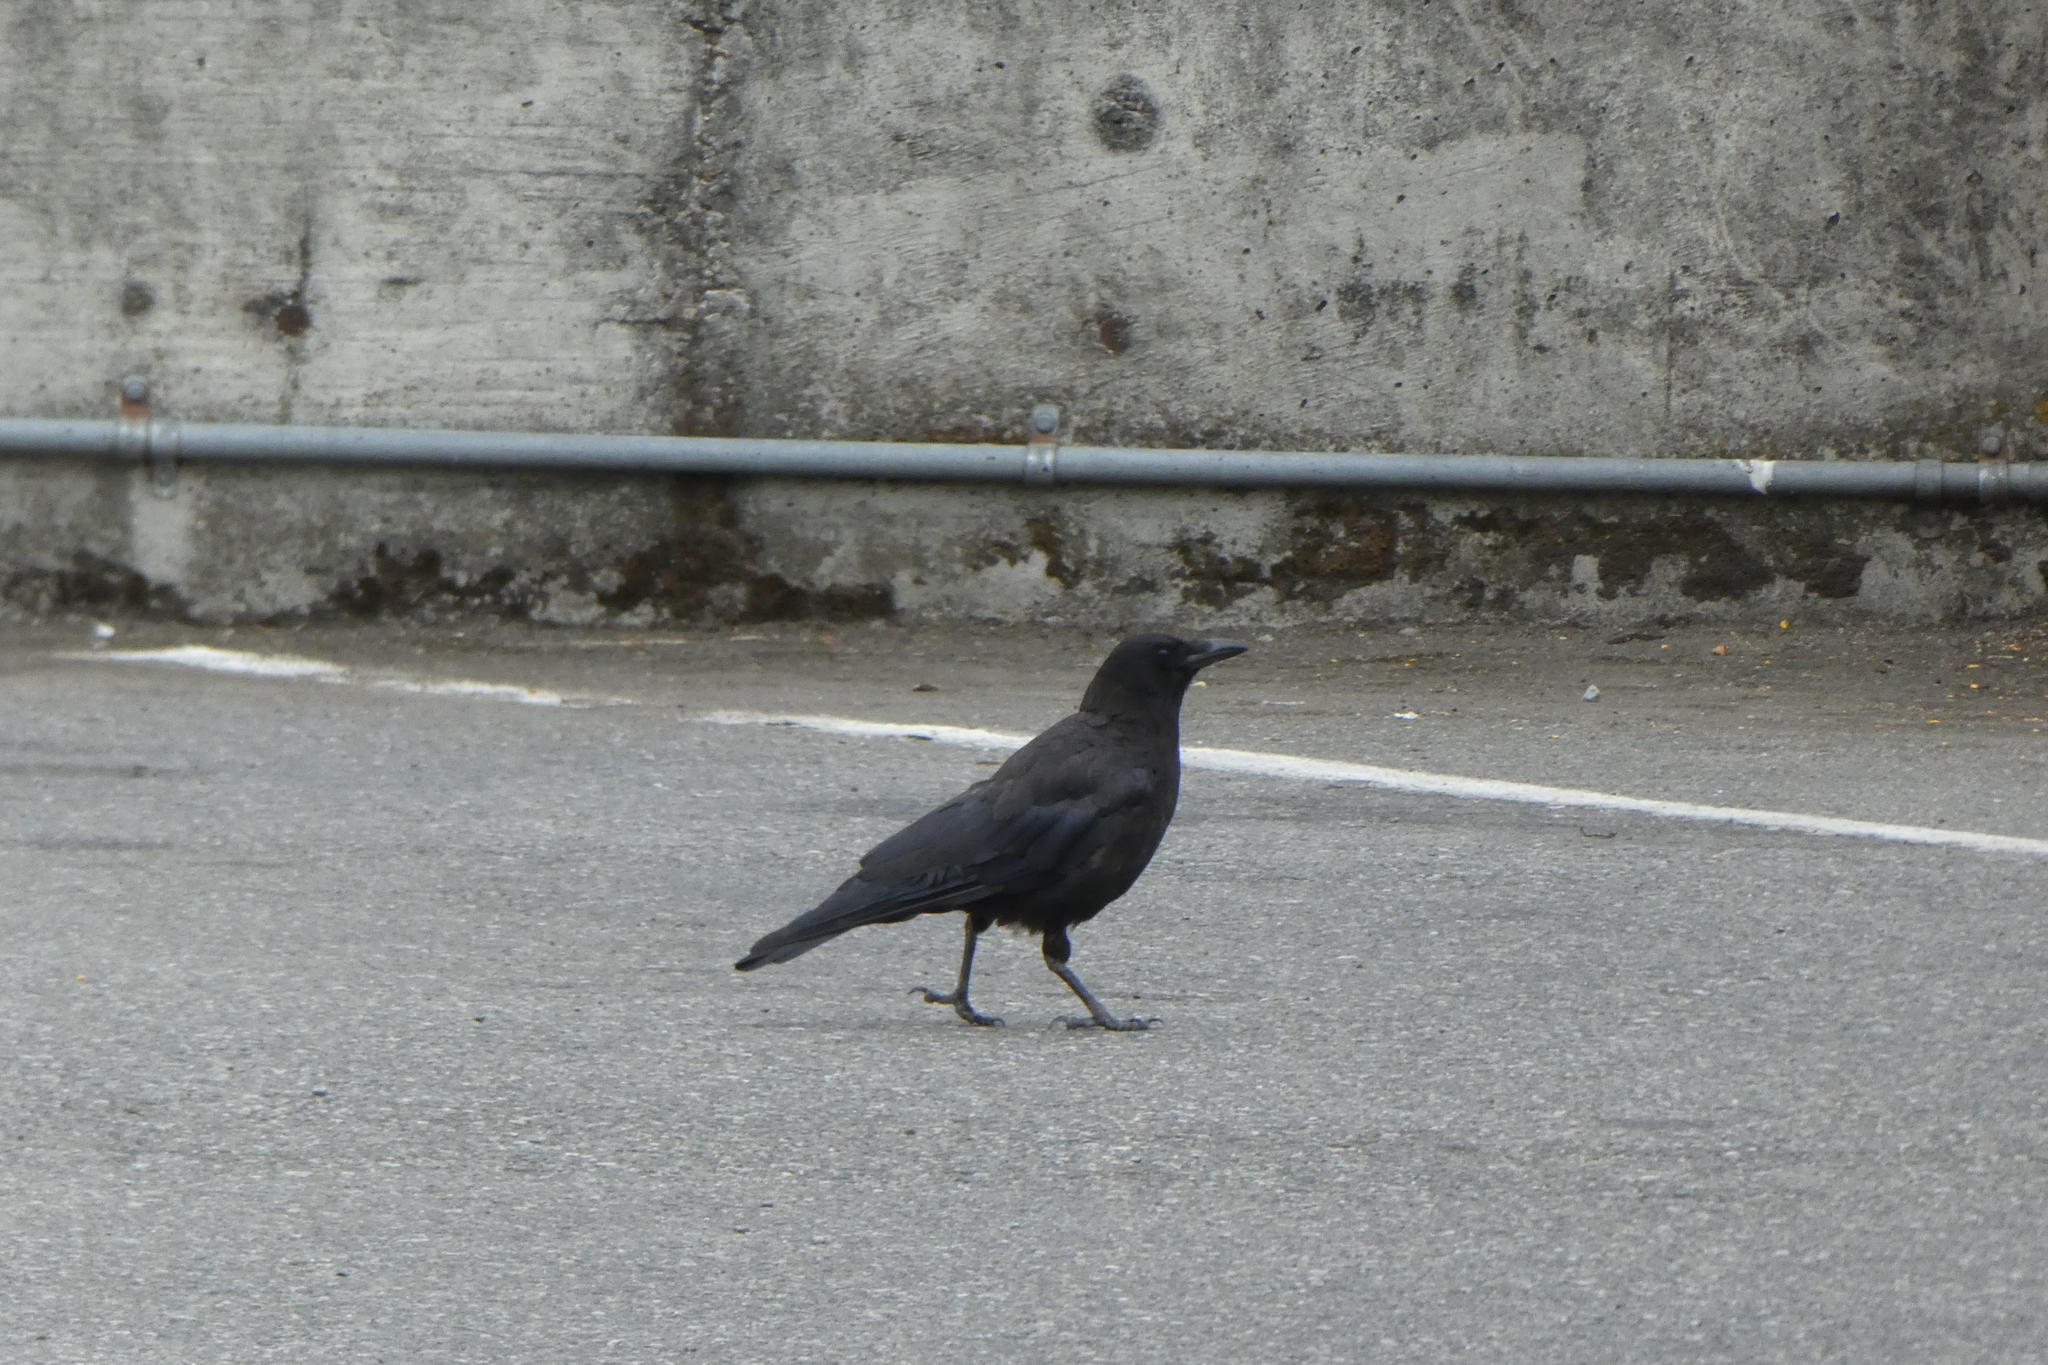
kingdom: Animalia
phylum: Chordata
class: Aves
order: Passeriformes
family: Corvidae
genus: Corvus
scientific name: Corvus brachyrhynchos
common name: American crow
